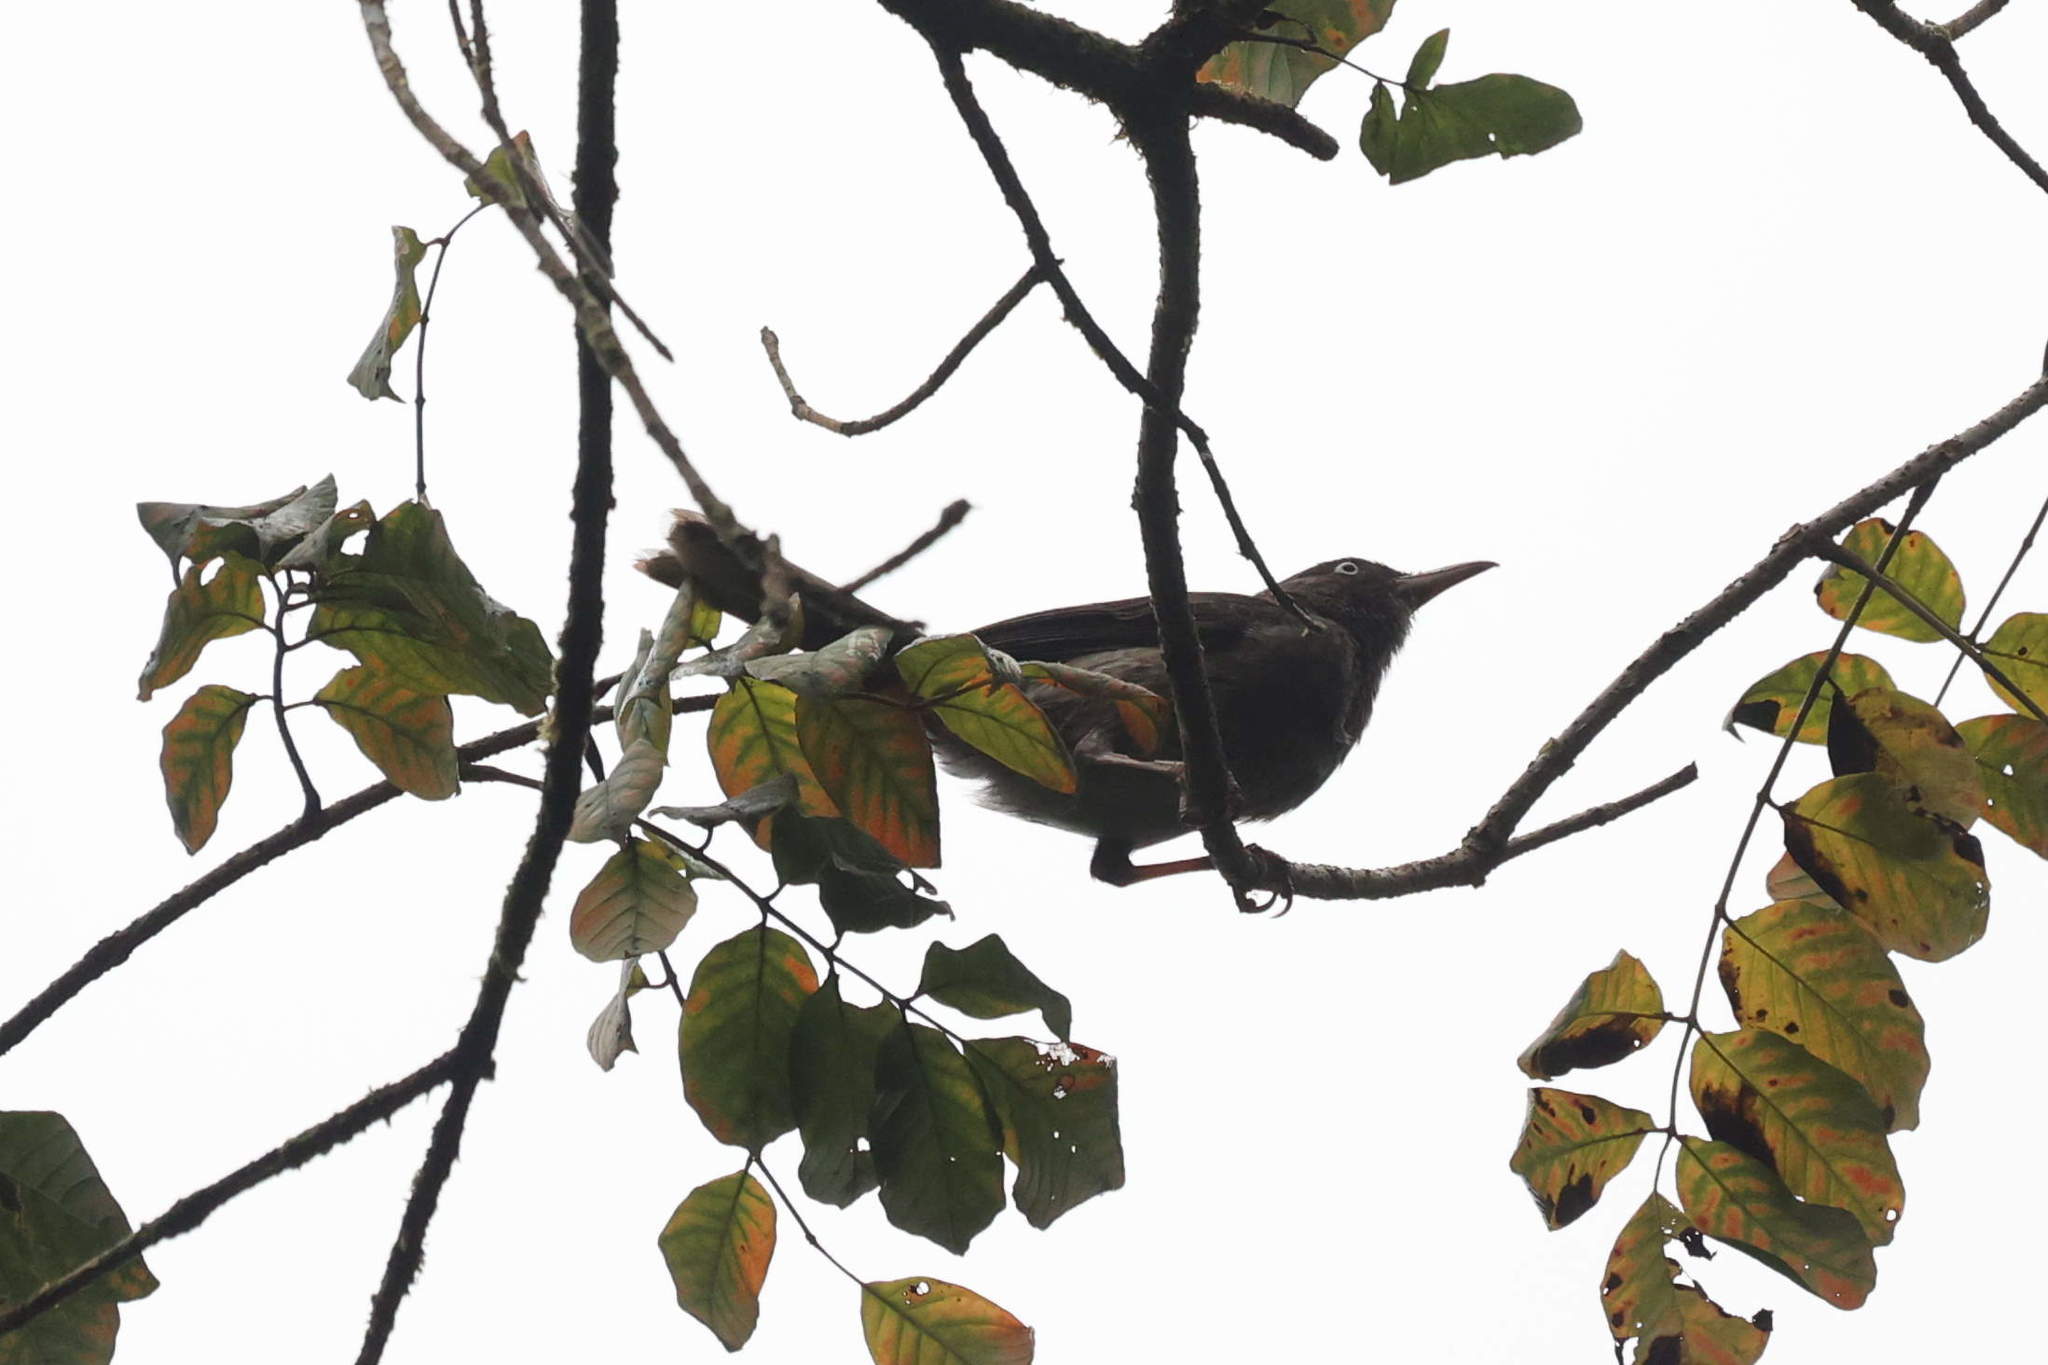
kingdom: Animalia
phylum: Chordata
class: Aves
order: Passeriformes
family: Mimidae
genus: Margarops
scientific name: Margarops fuscatus
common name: Pearly-eyed thrasher
